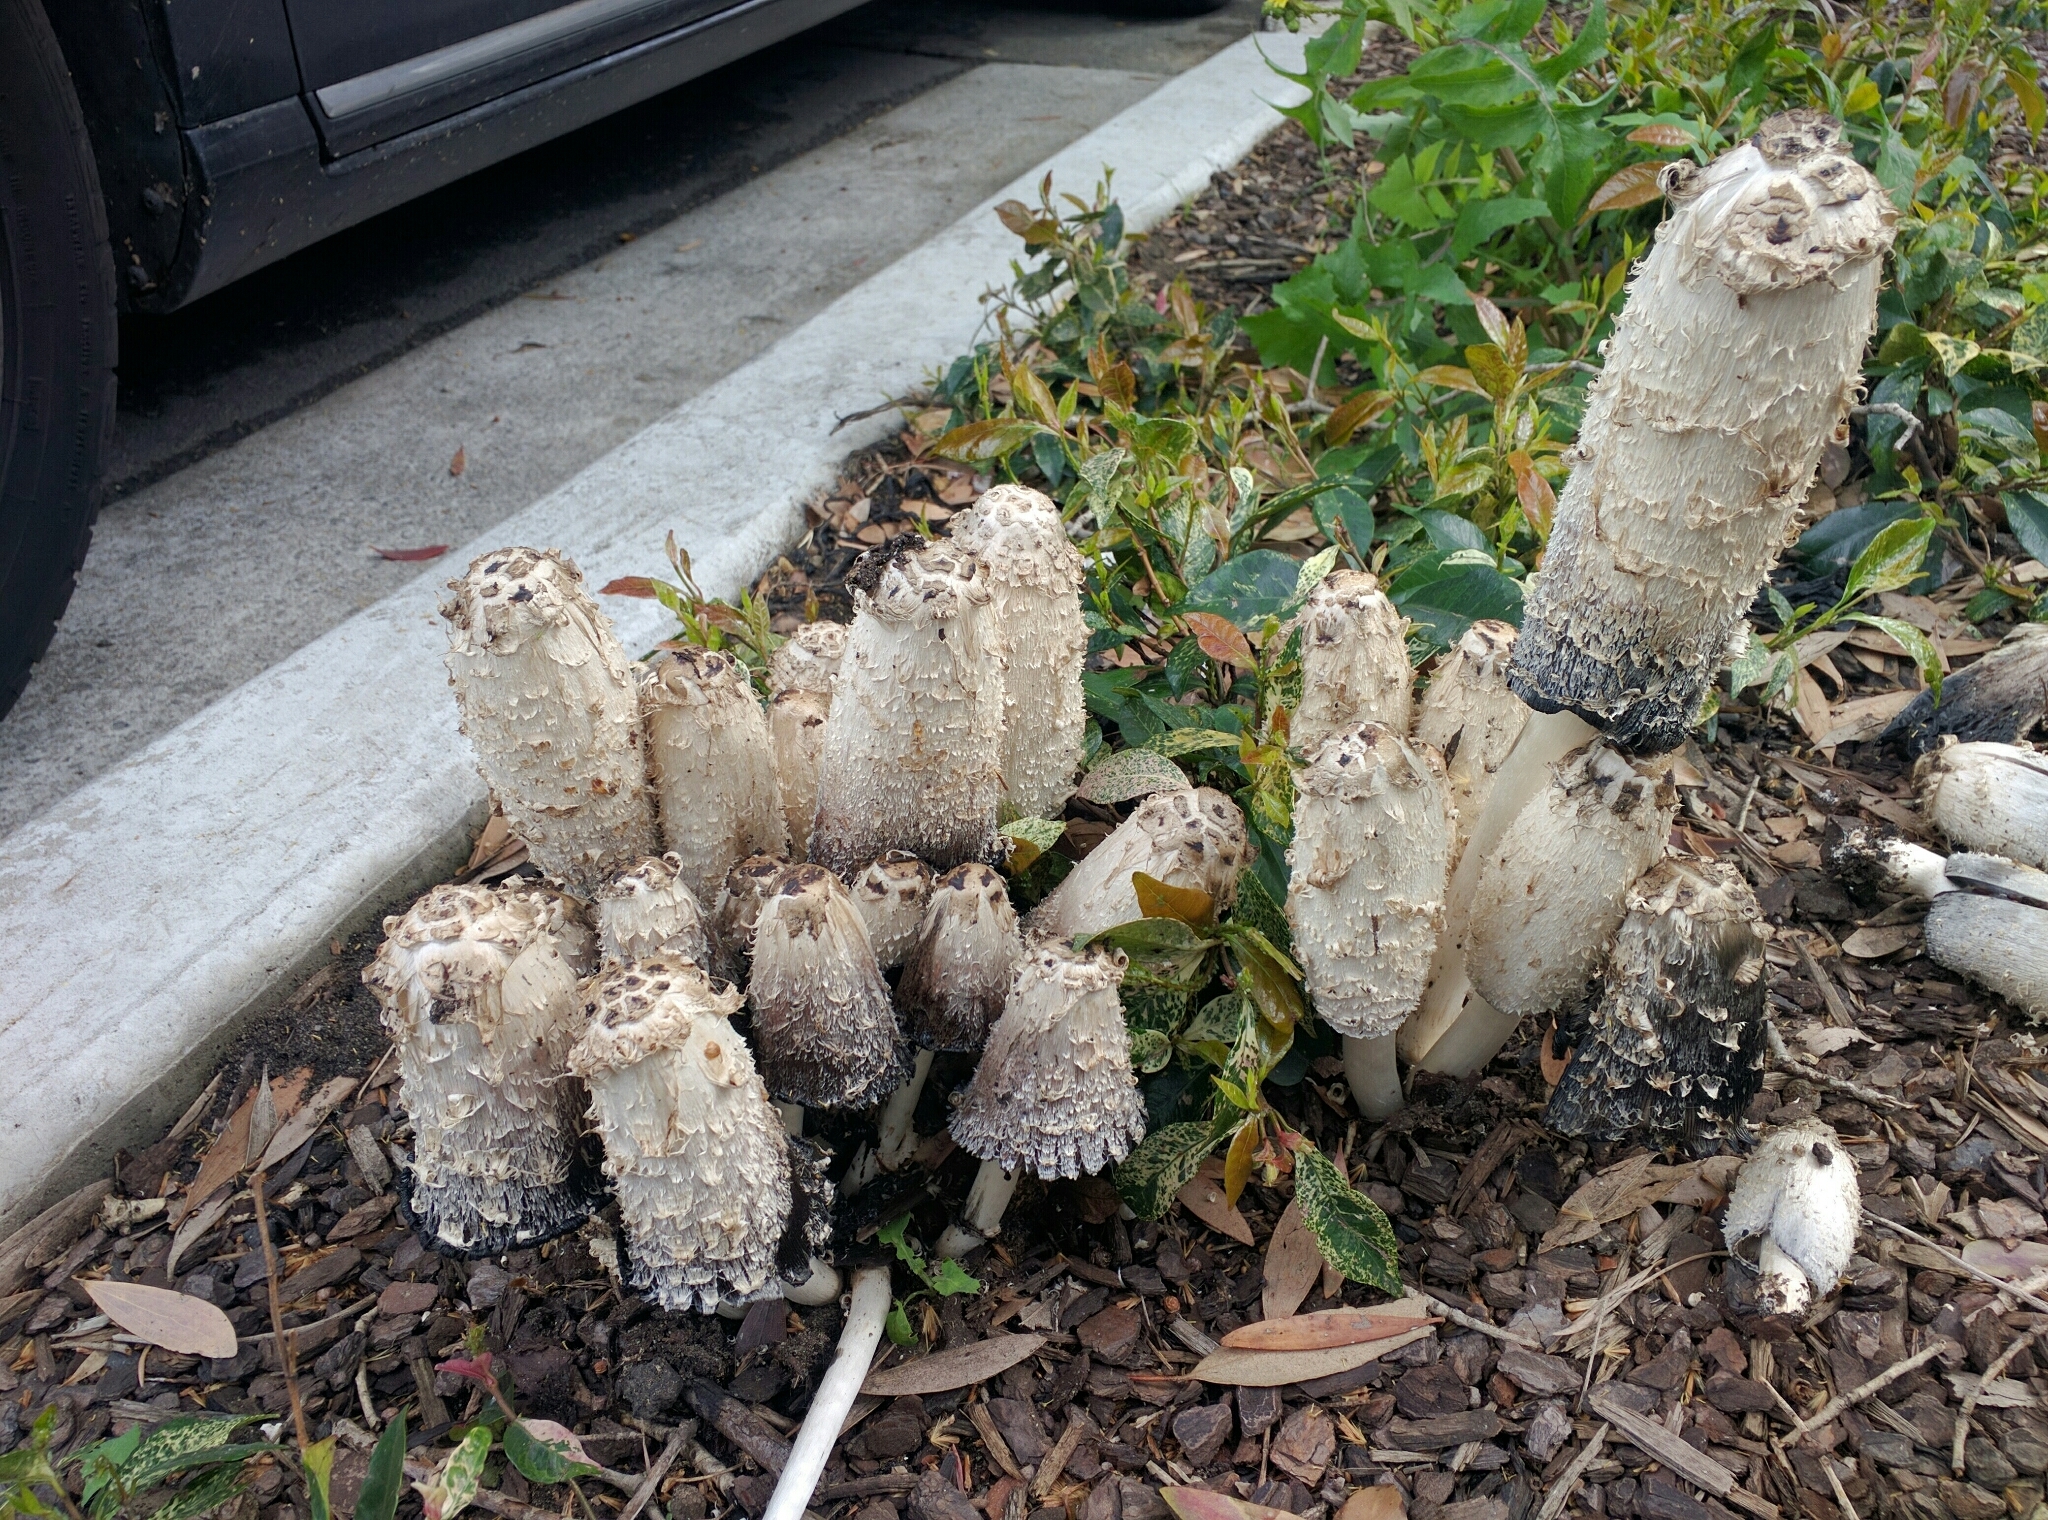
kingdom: Fungi
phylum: Basidiomycota
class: Agaricomycetes
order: Agaricales
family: Agaricaceae
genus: Coprinus
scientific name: Coprinus comatus
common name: Lawyer's wig
